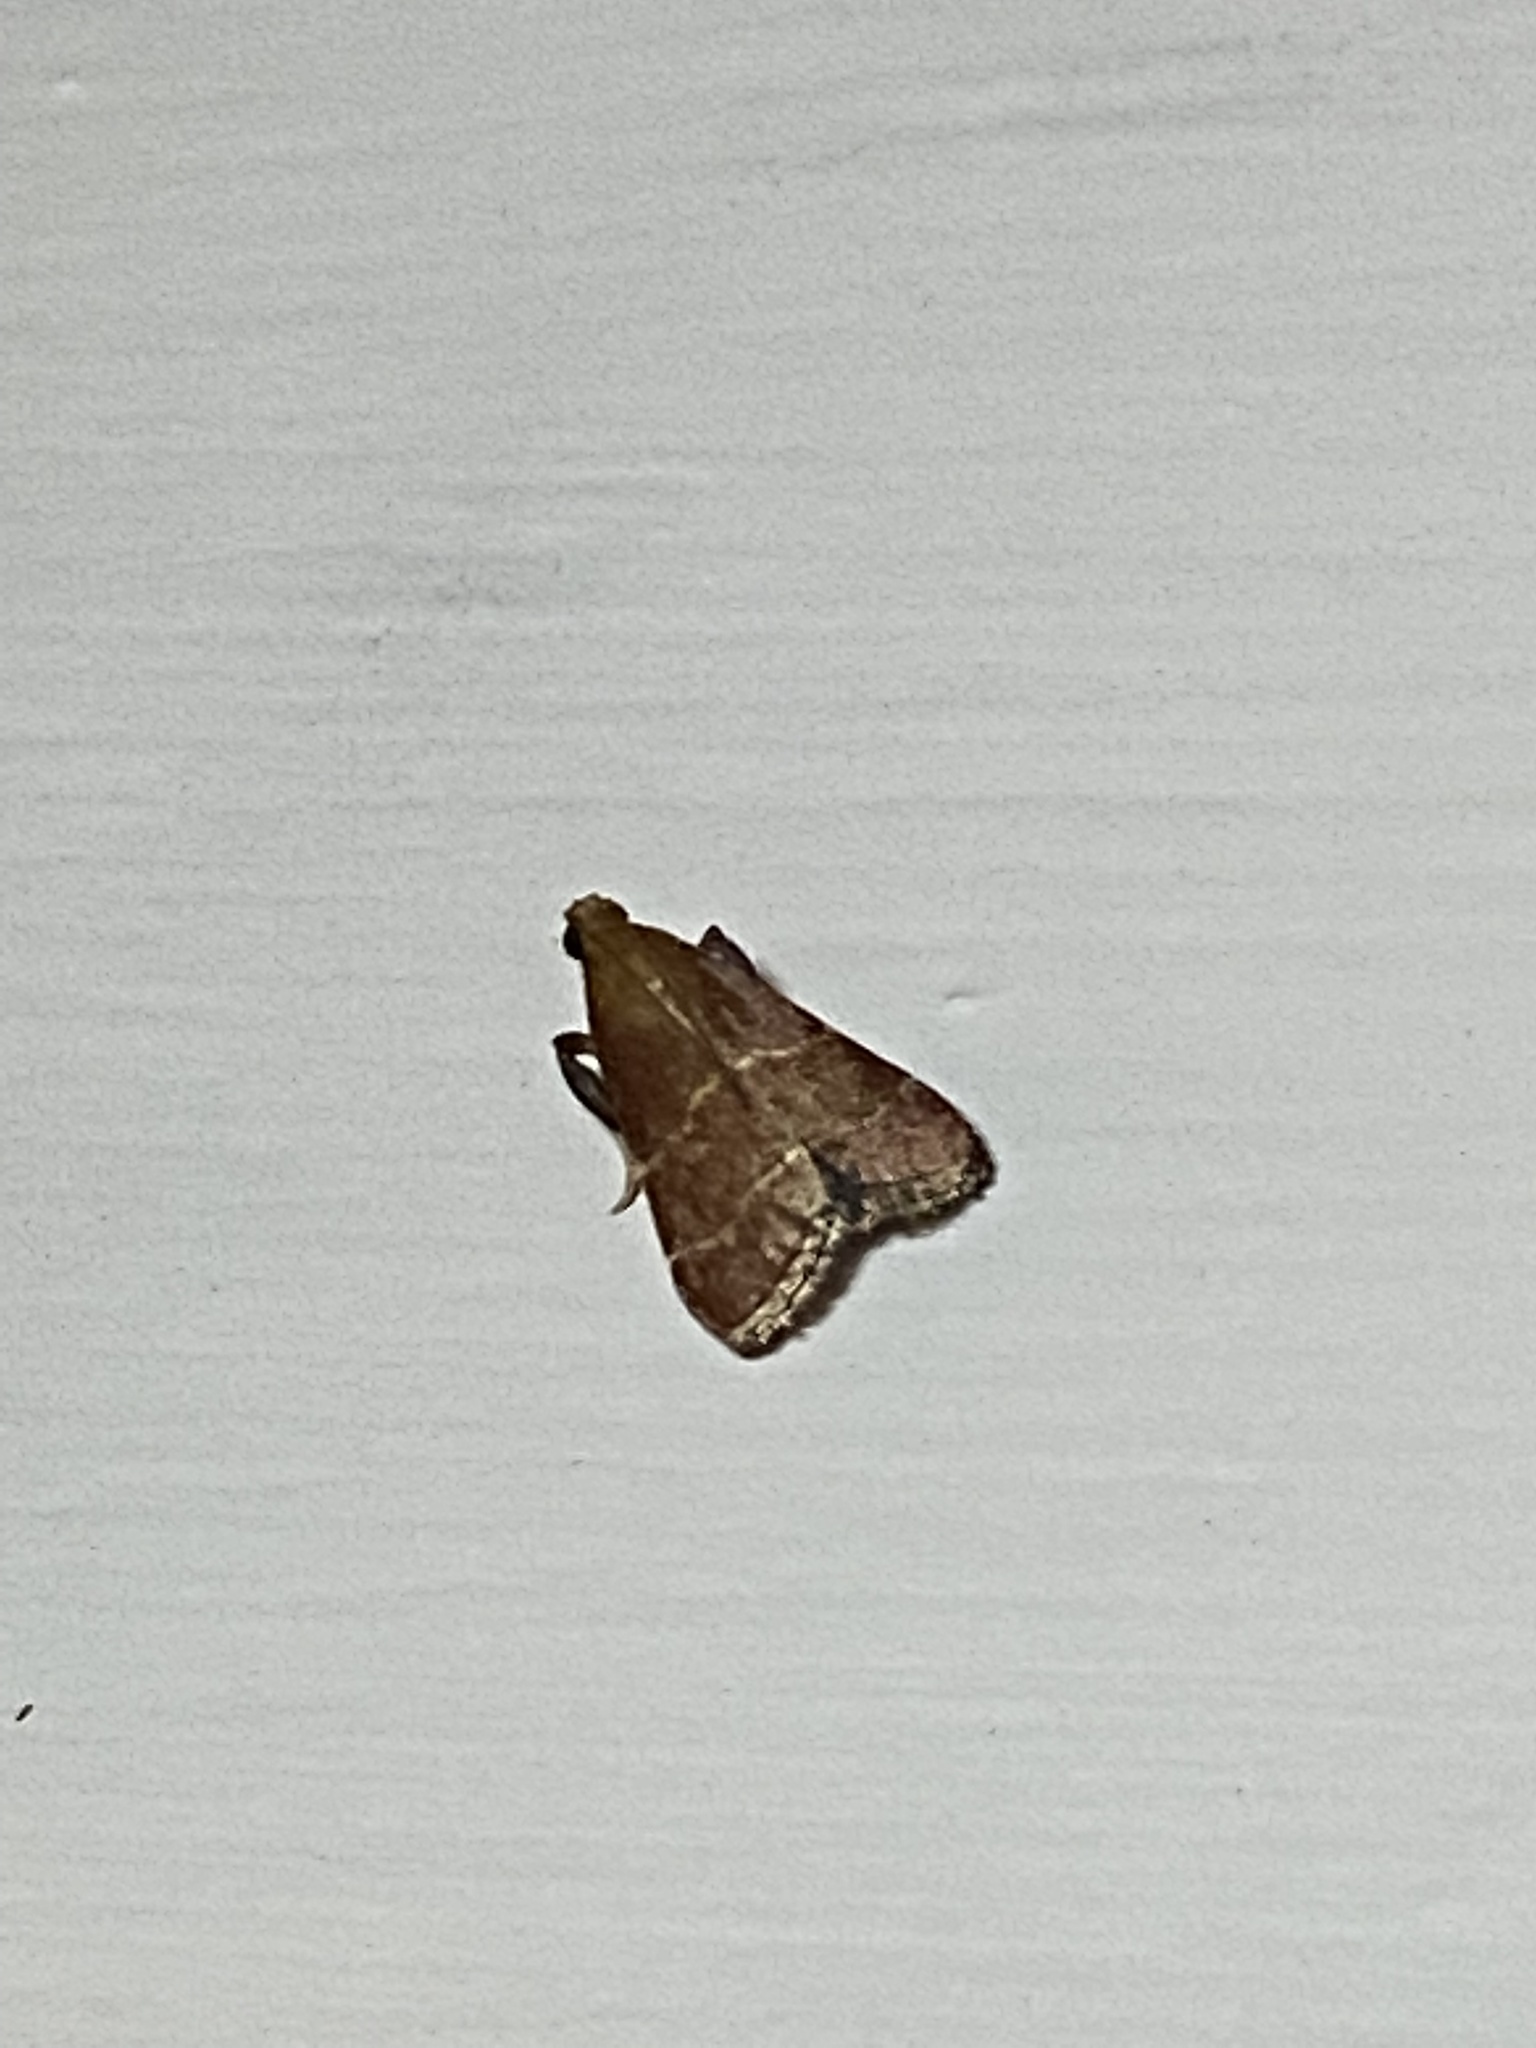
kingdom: Animalia
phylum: Arthropoda
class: Insecta
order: Lepidoptera
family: Pyralidae
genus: Arta
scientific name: Arta statalis
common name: Posturing arta moth
